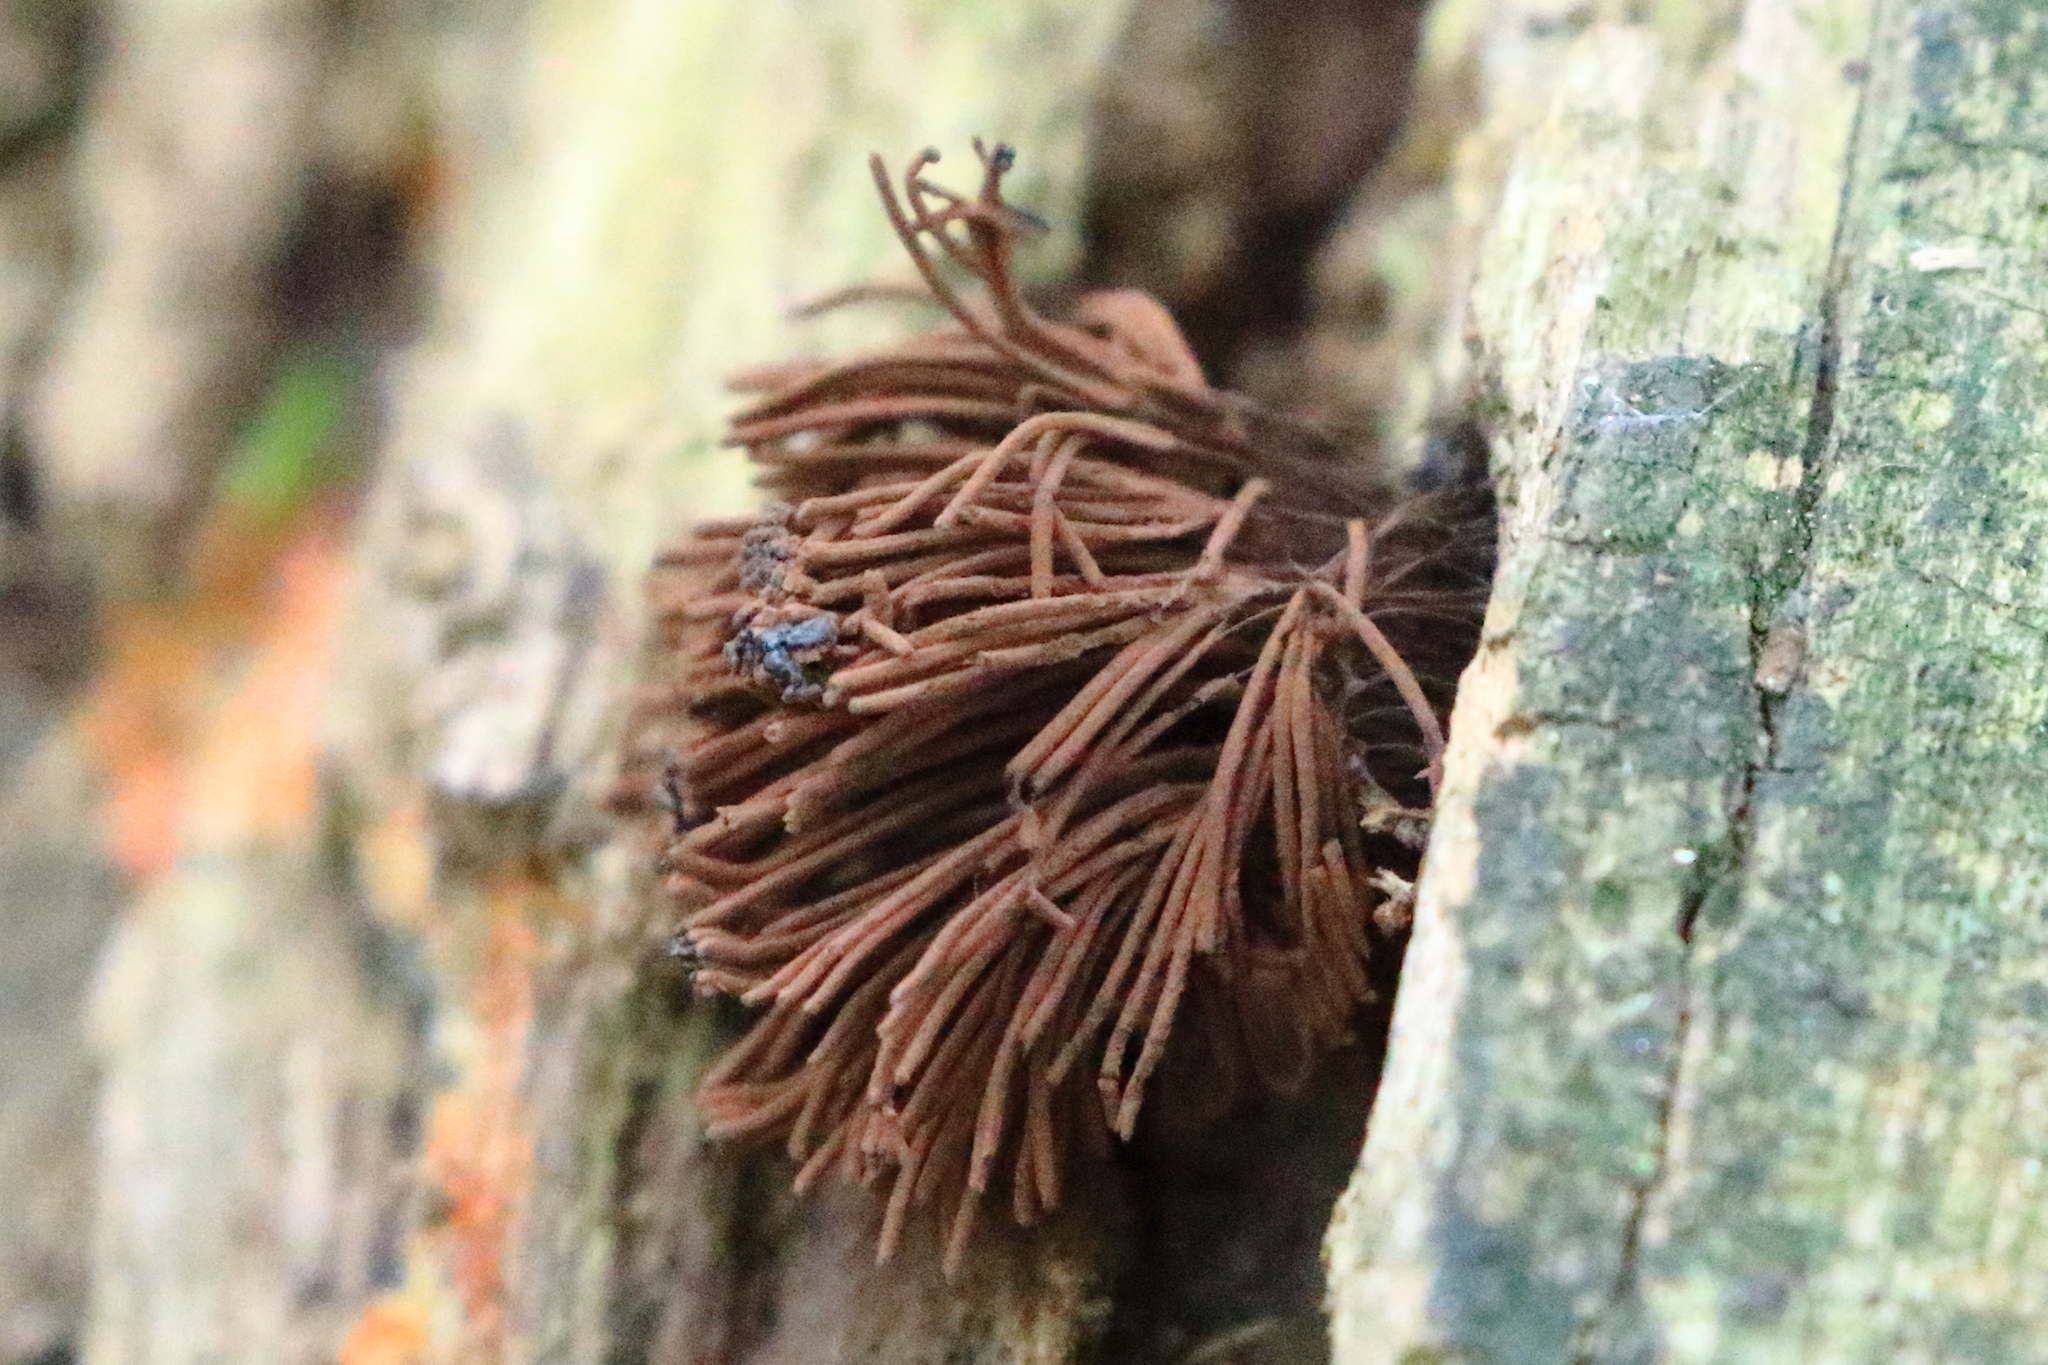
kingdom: Protozoa
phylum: Mycetozoa
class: Myxomycetes
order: Stemonitidales
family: Stemonitidaceae
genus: Stemonitis
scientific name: Stemonitis splendens
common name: Chocolate tube slime
